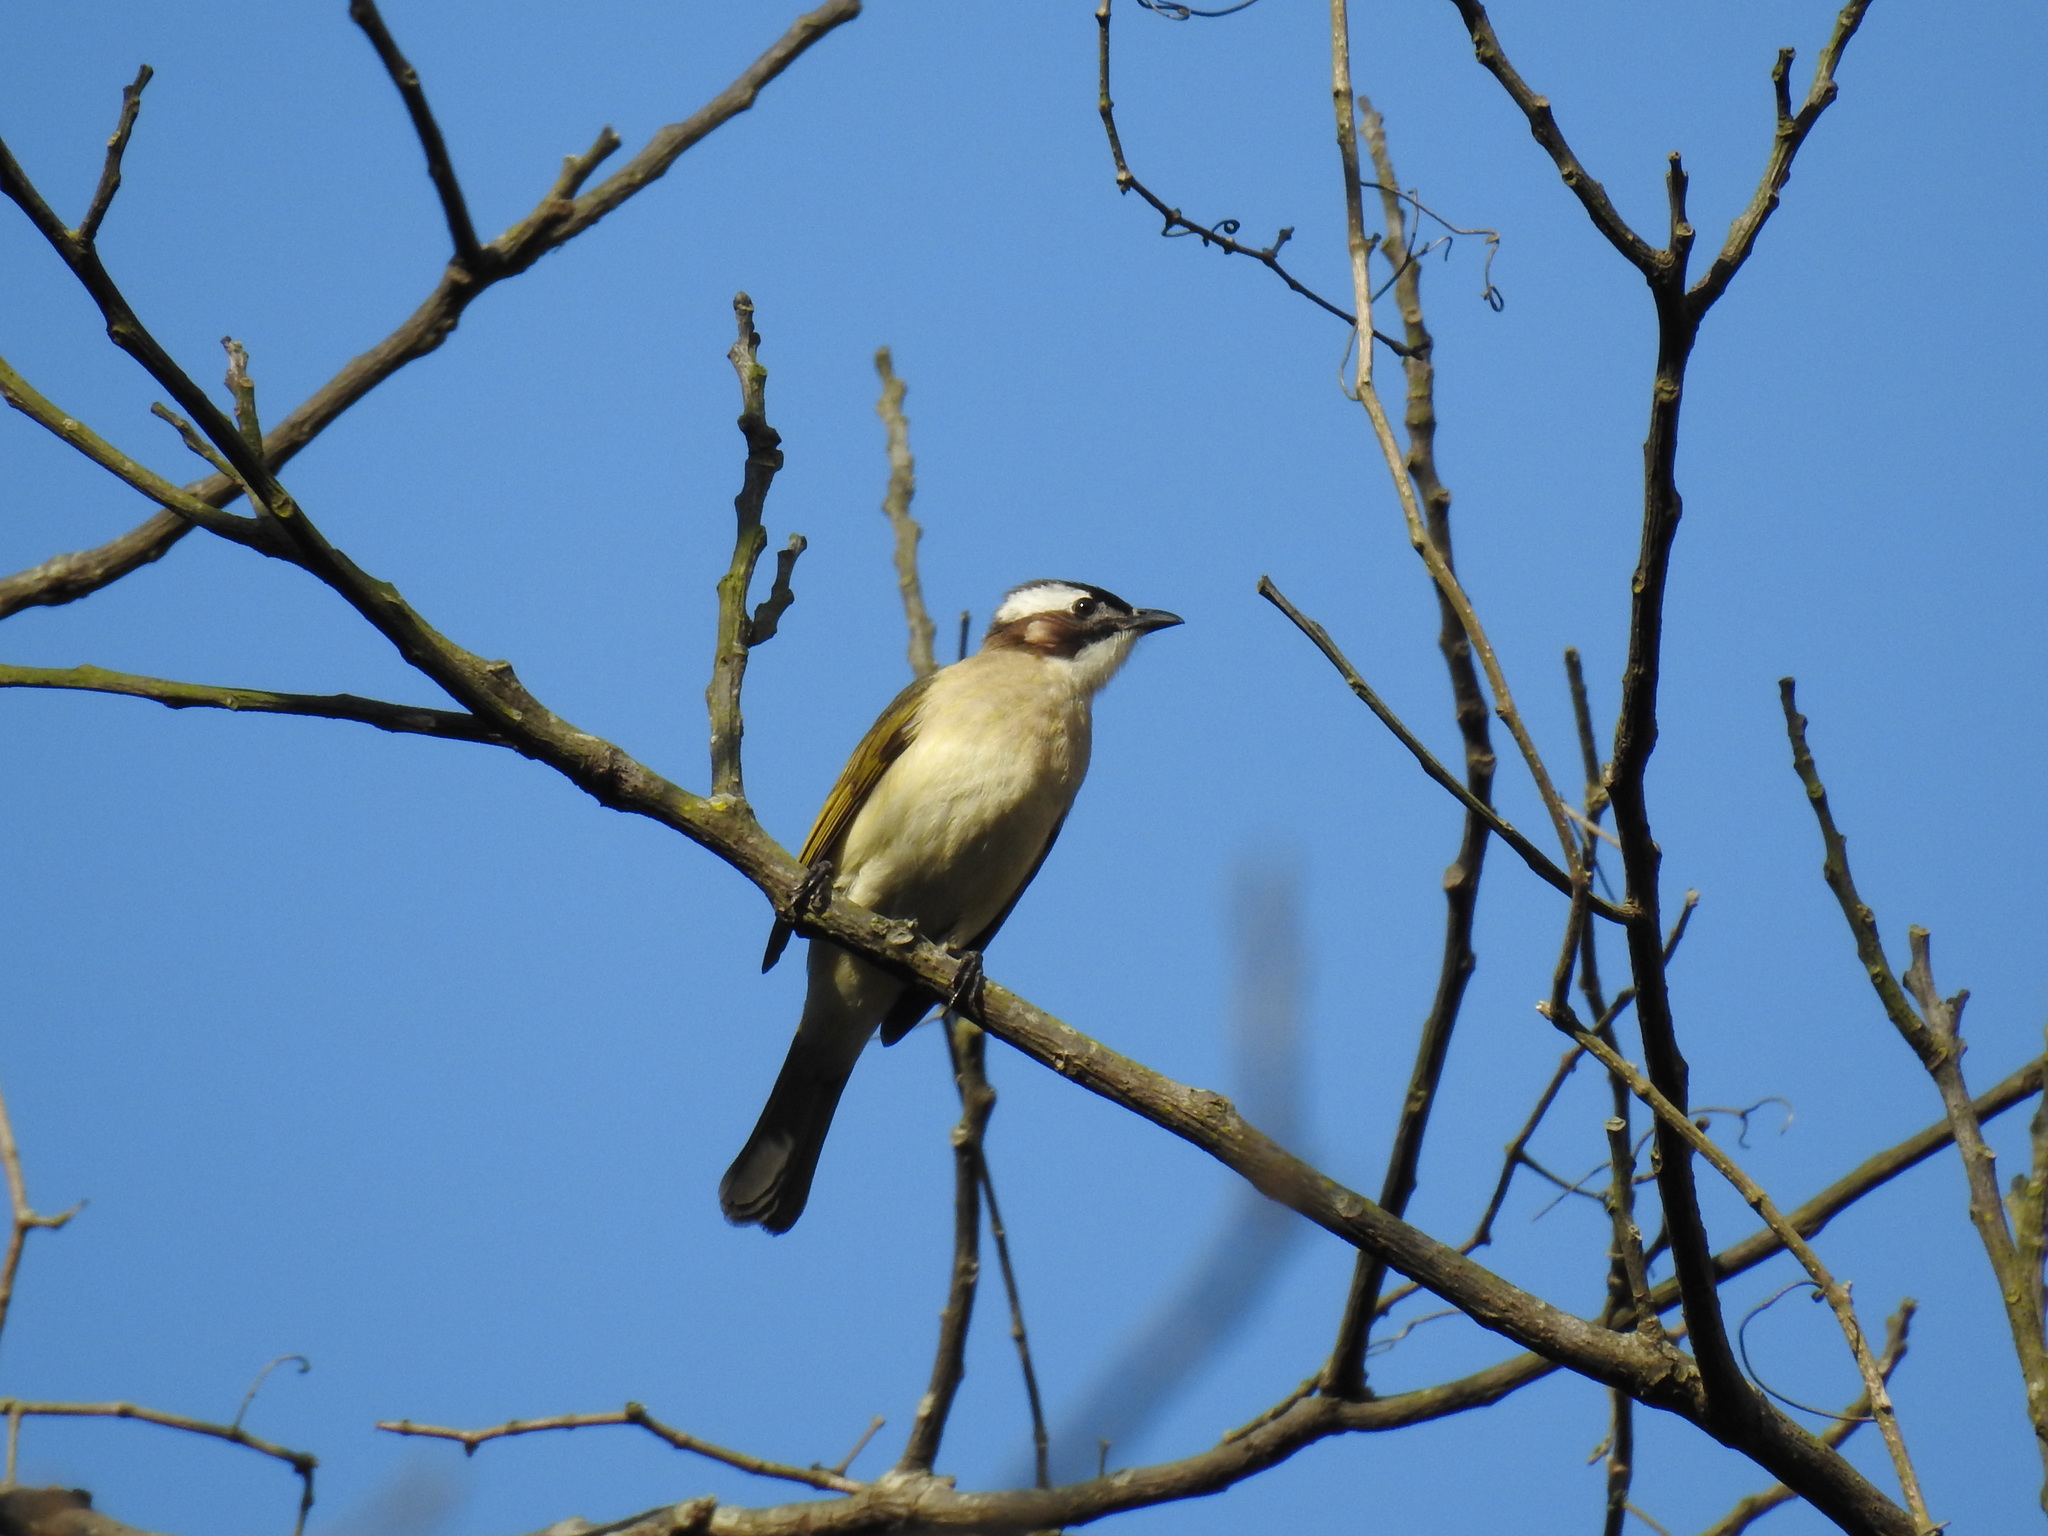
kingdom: Animalia
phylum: Chordata
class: Aves
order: Passeriformes
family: Pycnonotidae
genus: Pycnonotus
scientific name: Pycnonotus sinensis
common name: Light-vented bulbul
